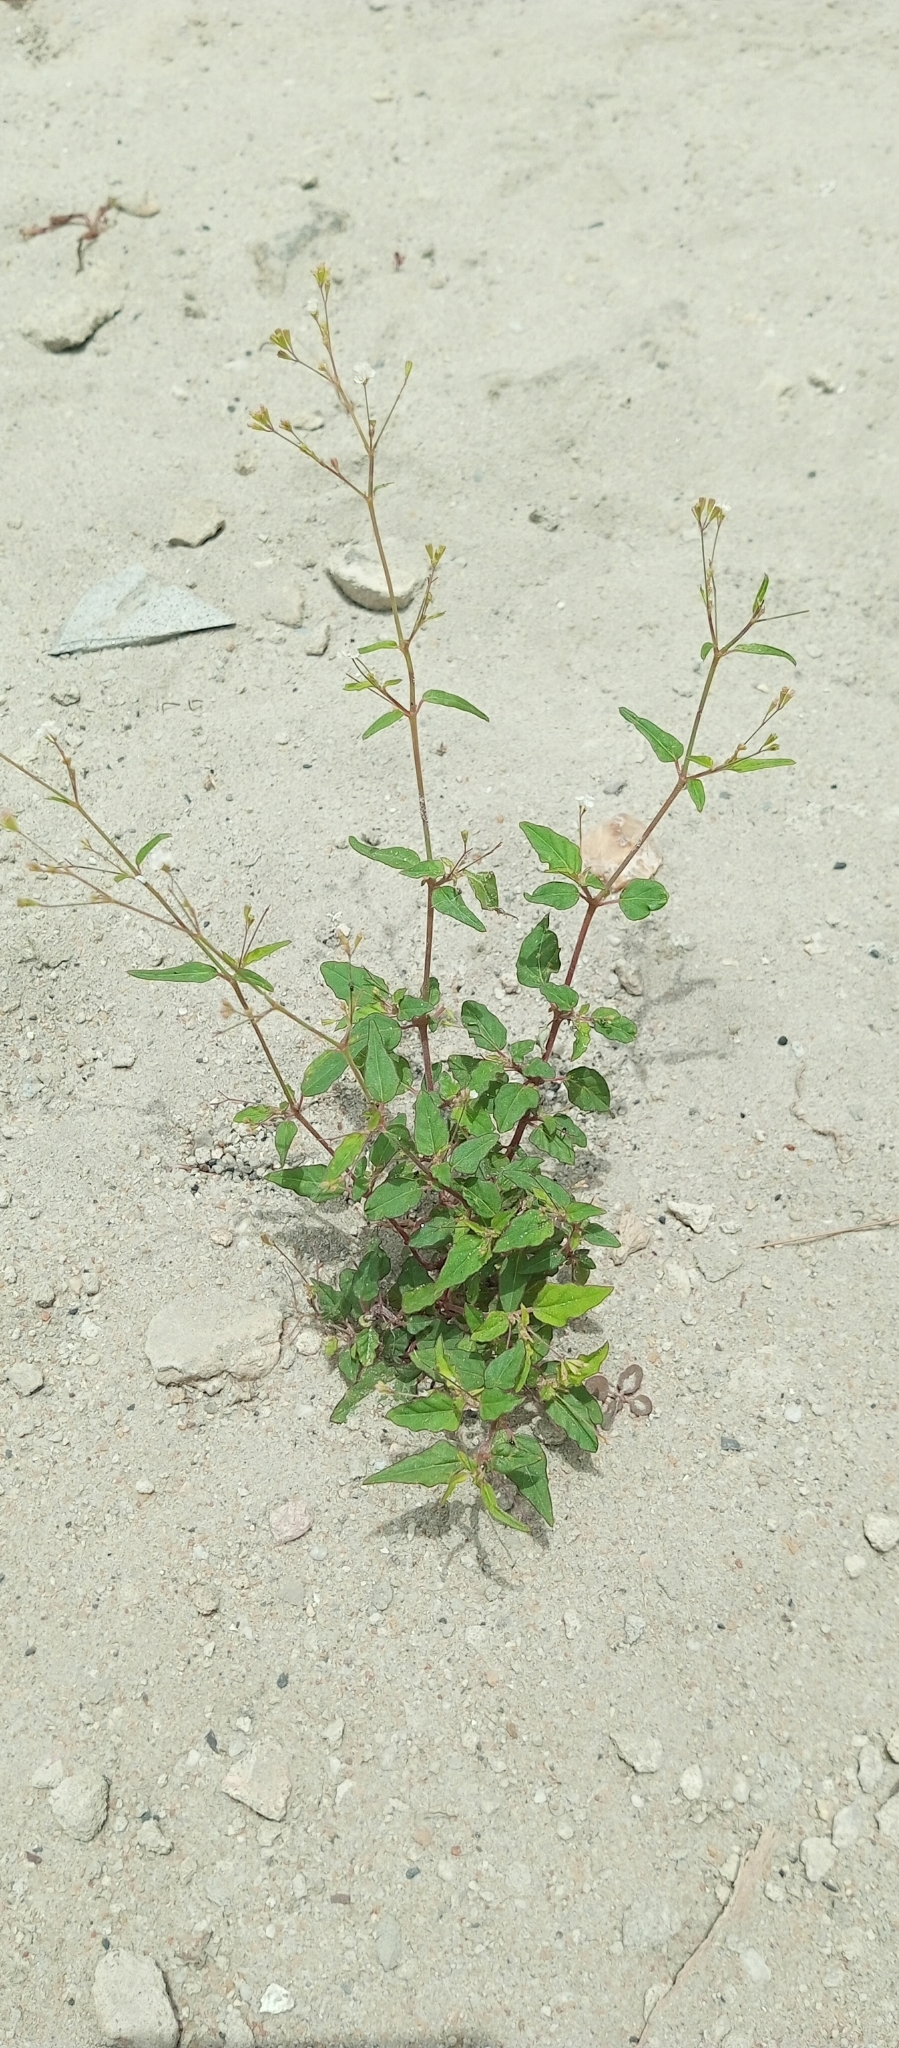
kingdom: Plantae
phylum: Tracheophyta
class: Magnoliopsida
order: Caryophyllales
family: Nyctaginaceae
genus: Boerhavia
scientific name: Boerhavia erecta
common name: Erect spiderling
